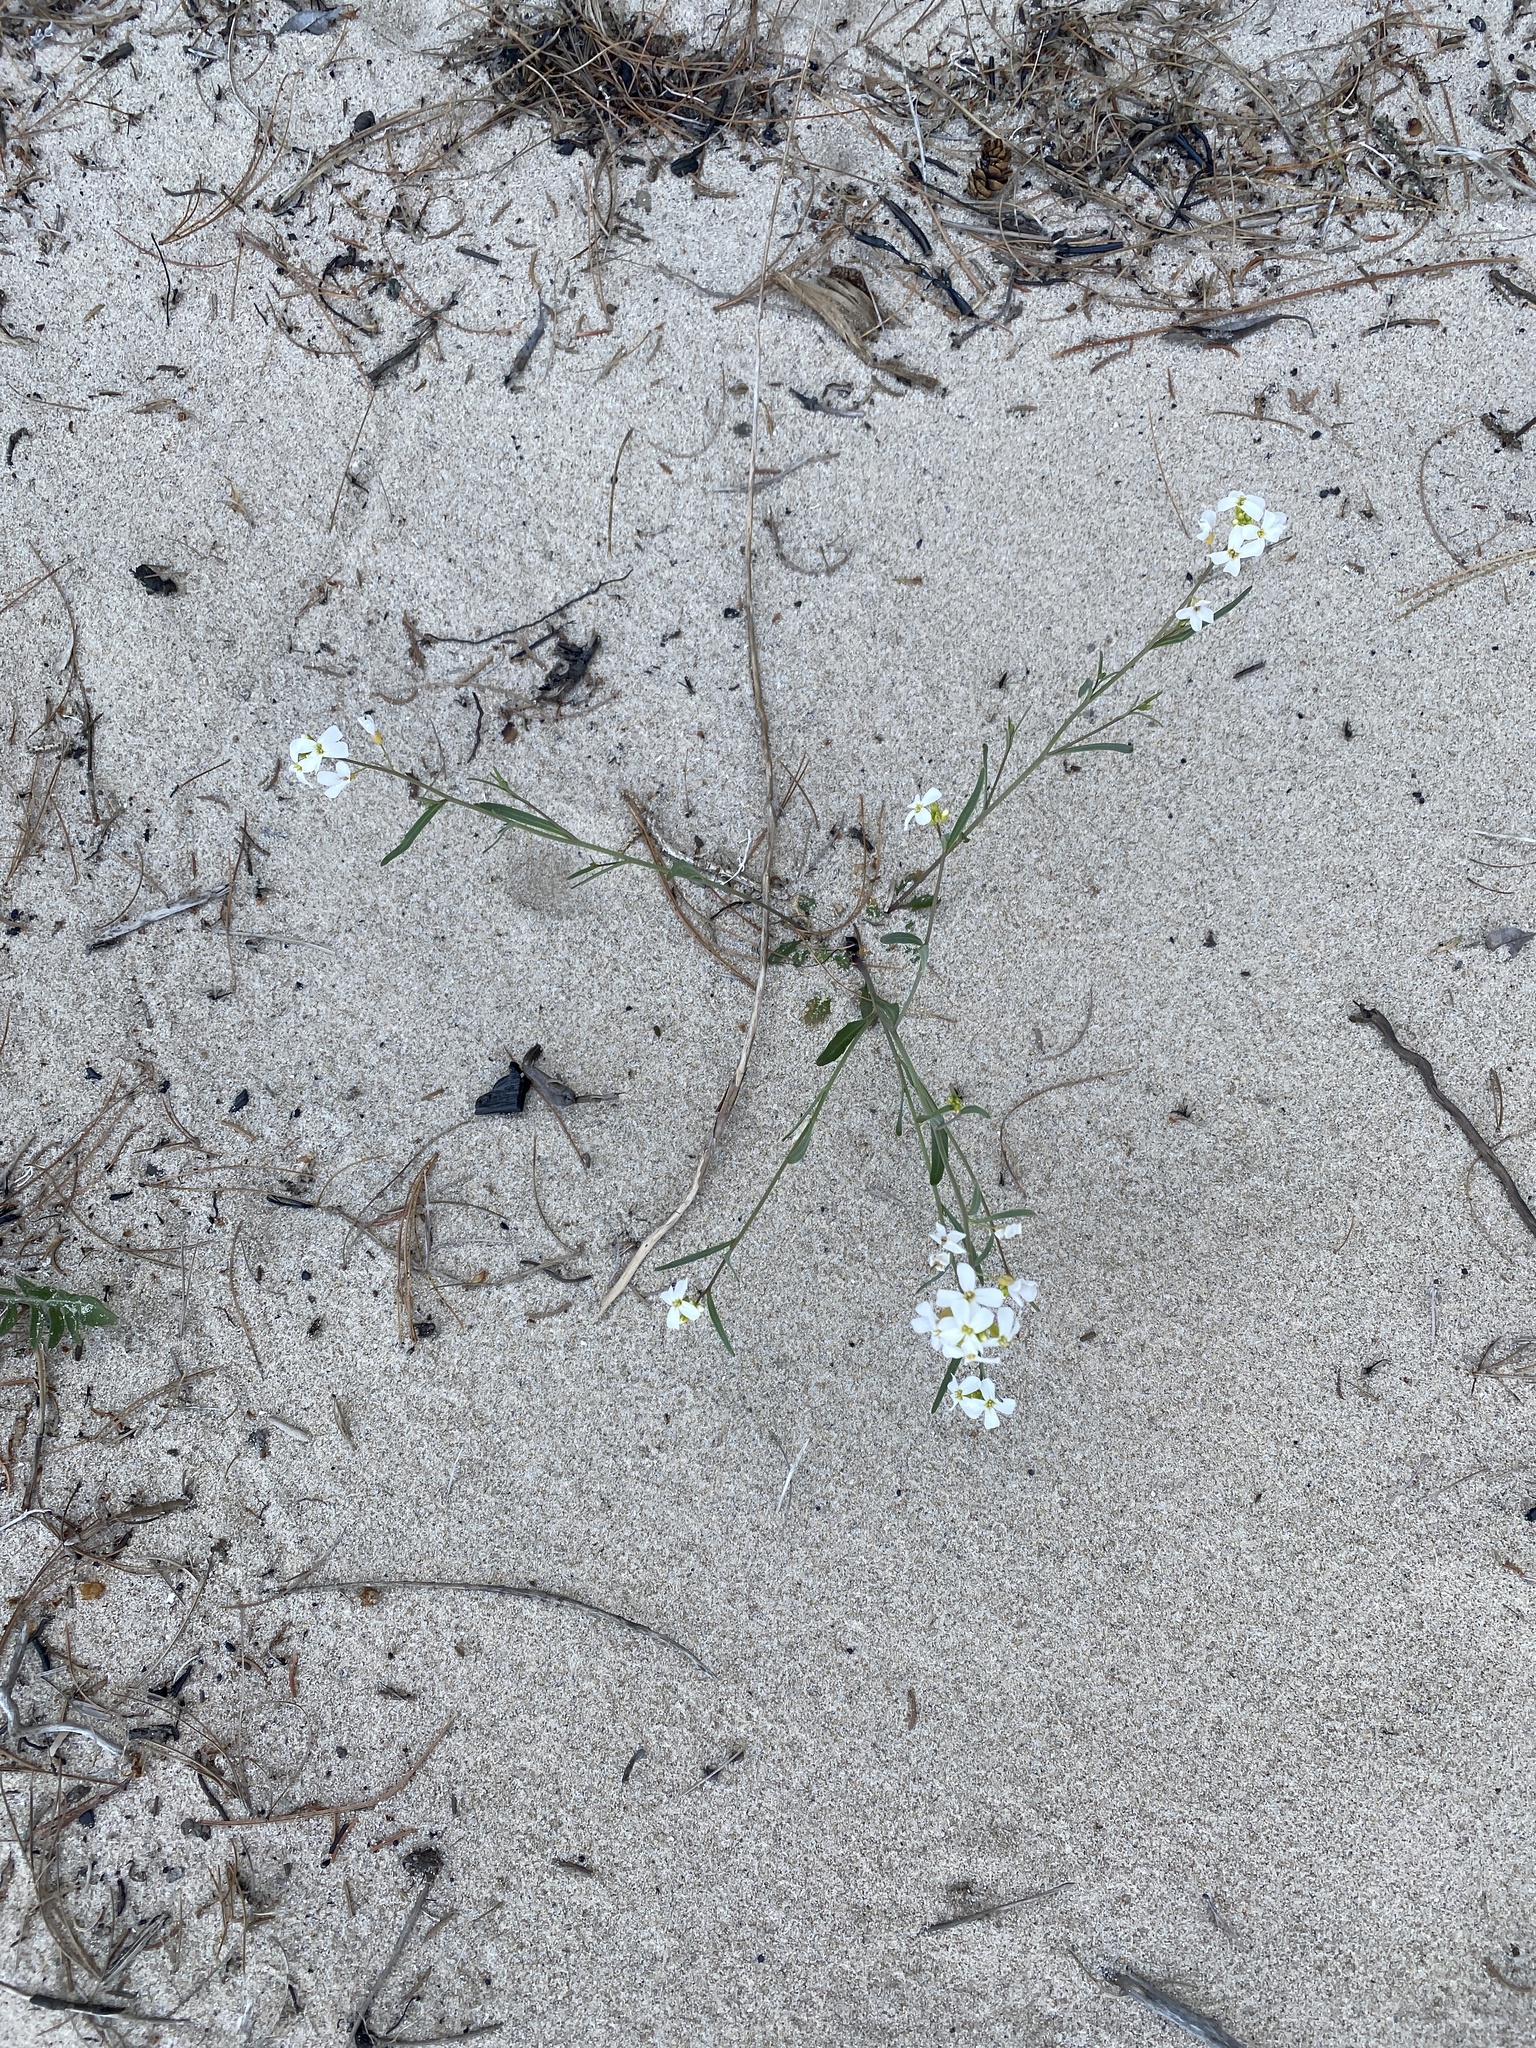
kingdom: Plantae
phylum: Tracheophyta
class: Magnoliopsida
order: Brassicales
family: Brassicaceae
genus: Arabidopsis
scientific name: Arabidopsis lyrata
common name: Lyrate rockcress
